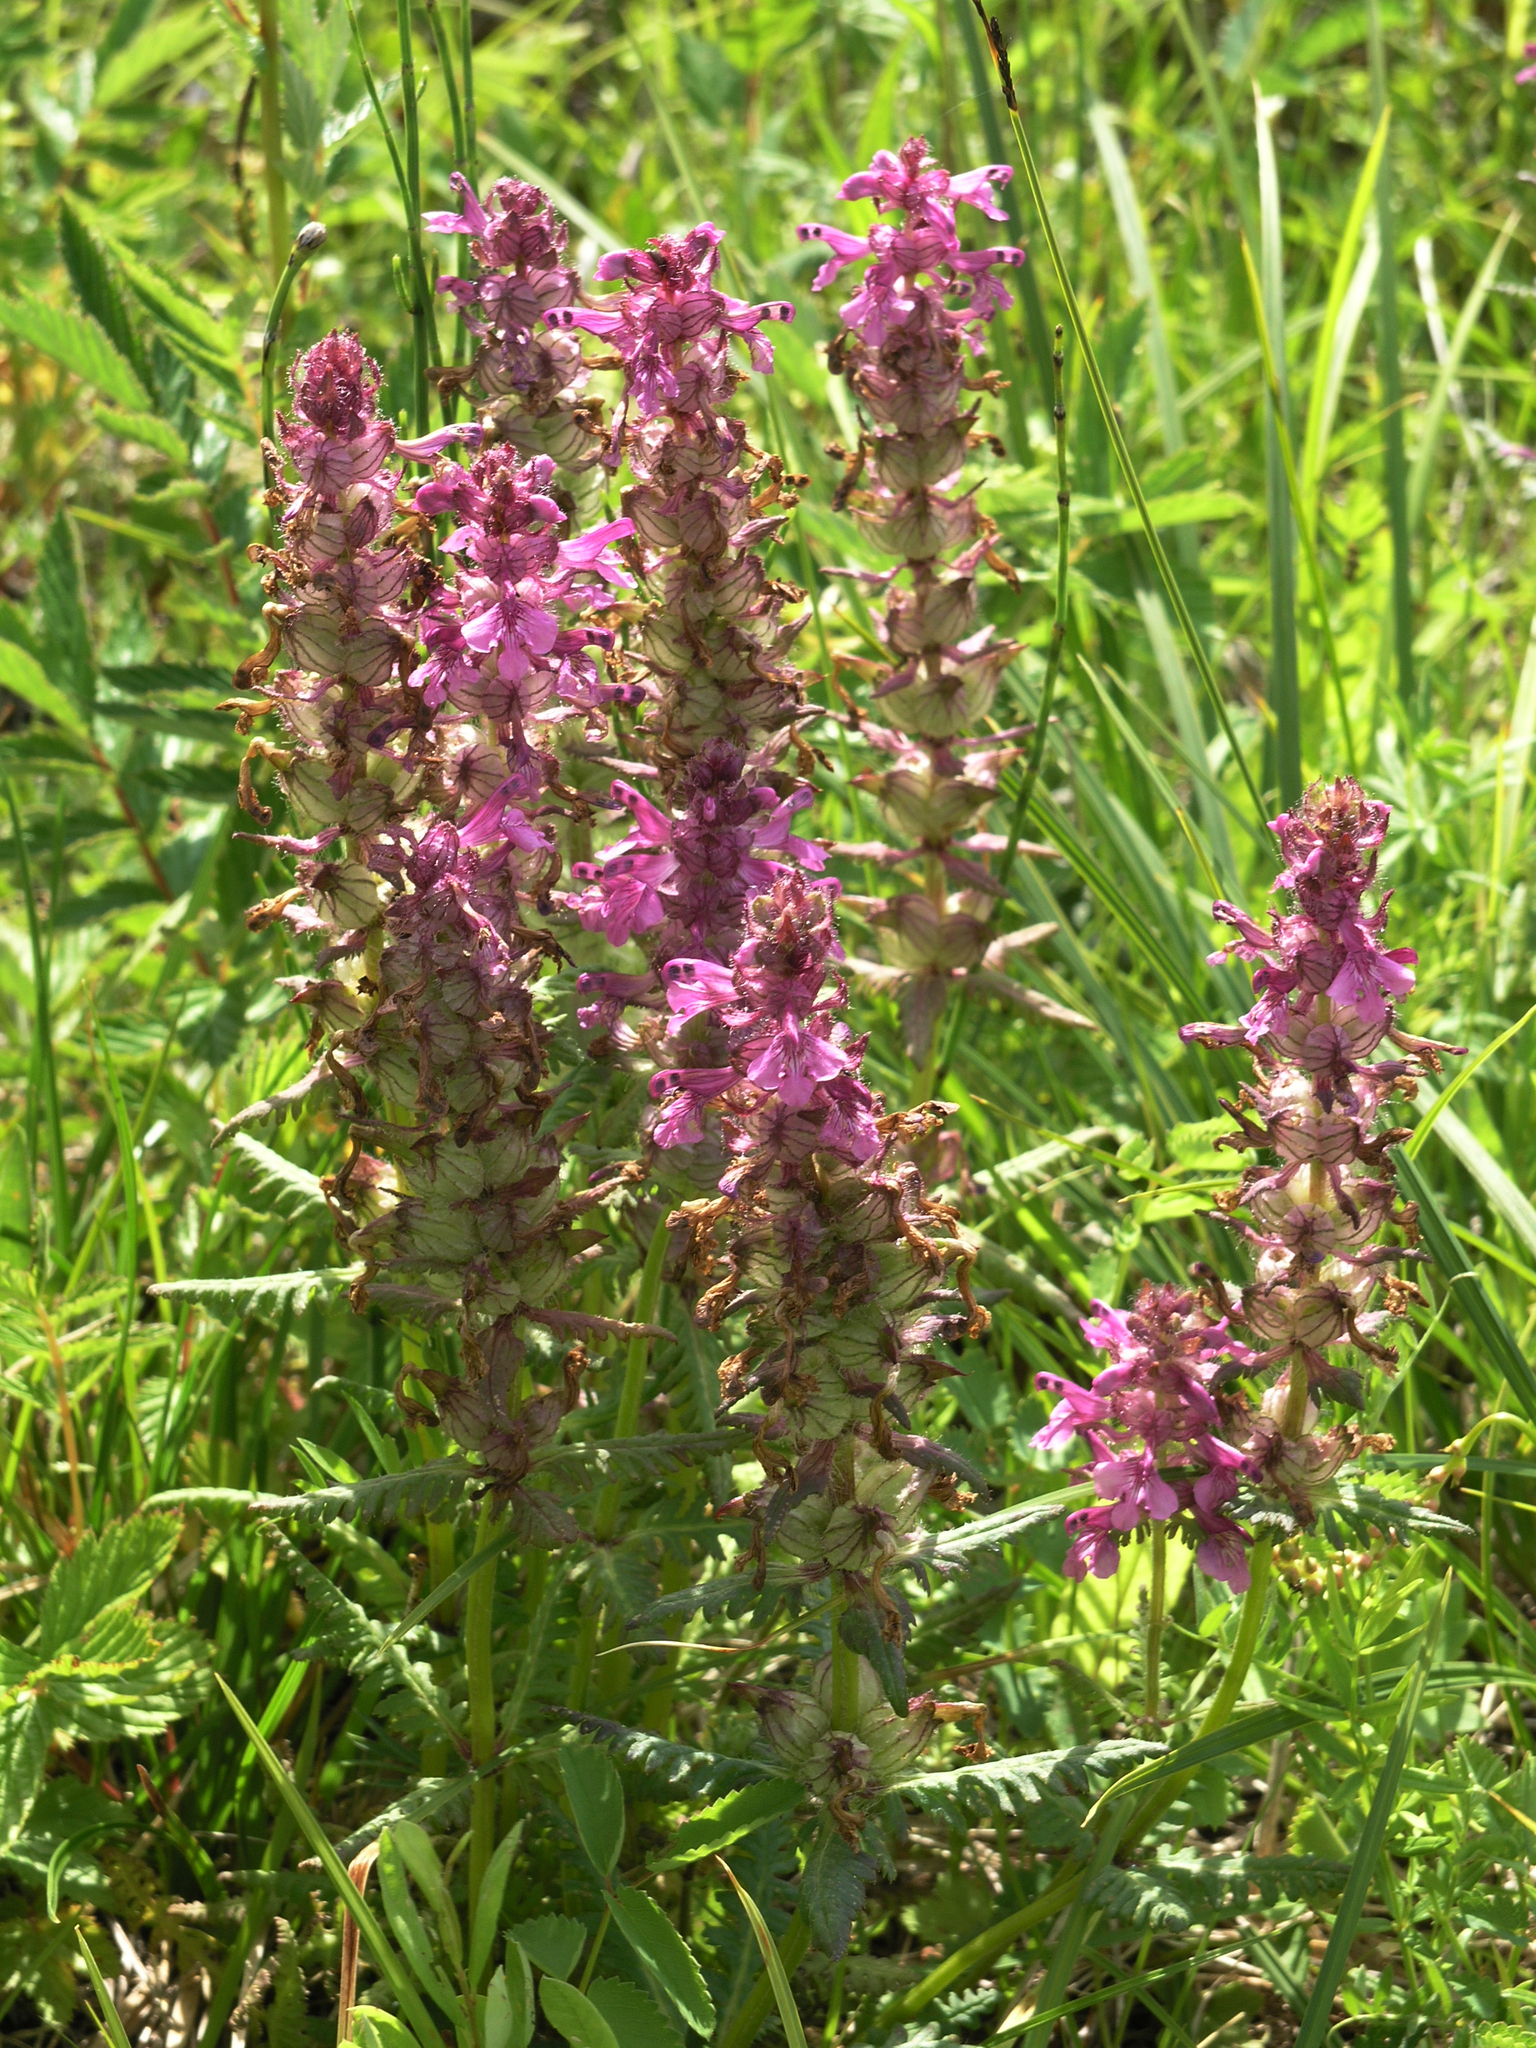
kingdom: Plantae
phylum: Tracheophyta
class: Magnoliopsida
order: Lamiales
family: Orobanchaceae
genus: Pedicularis
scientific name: Pedicularis verticillata
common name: Whorled lousewort
